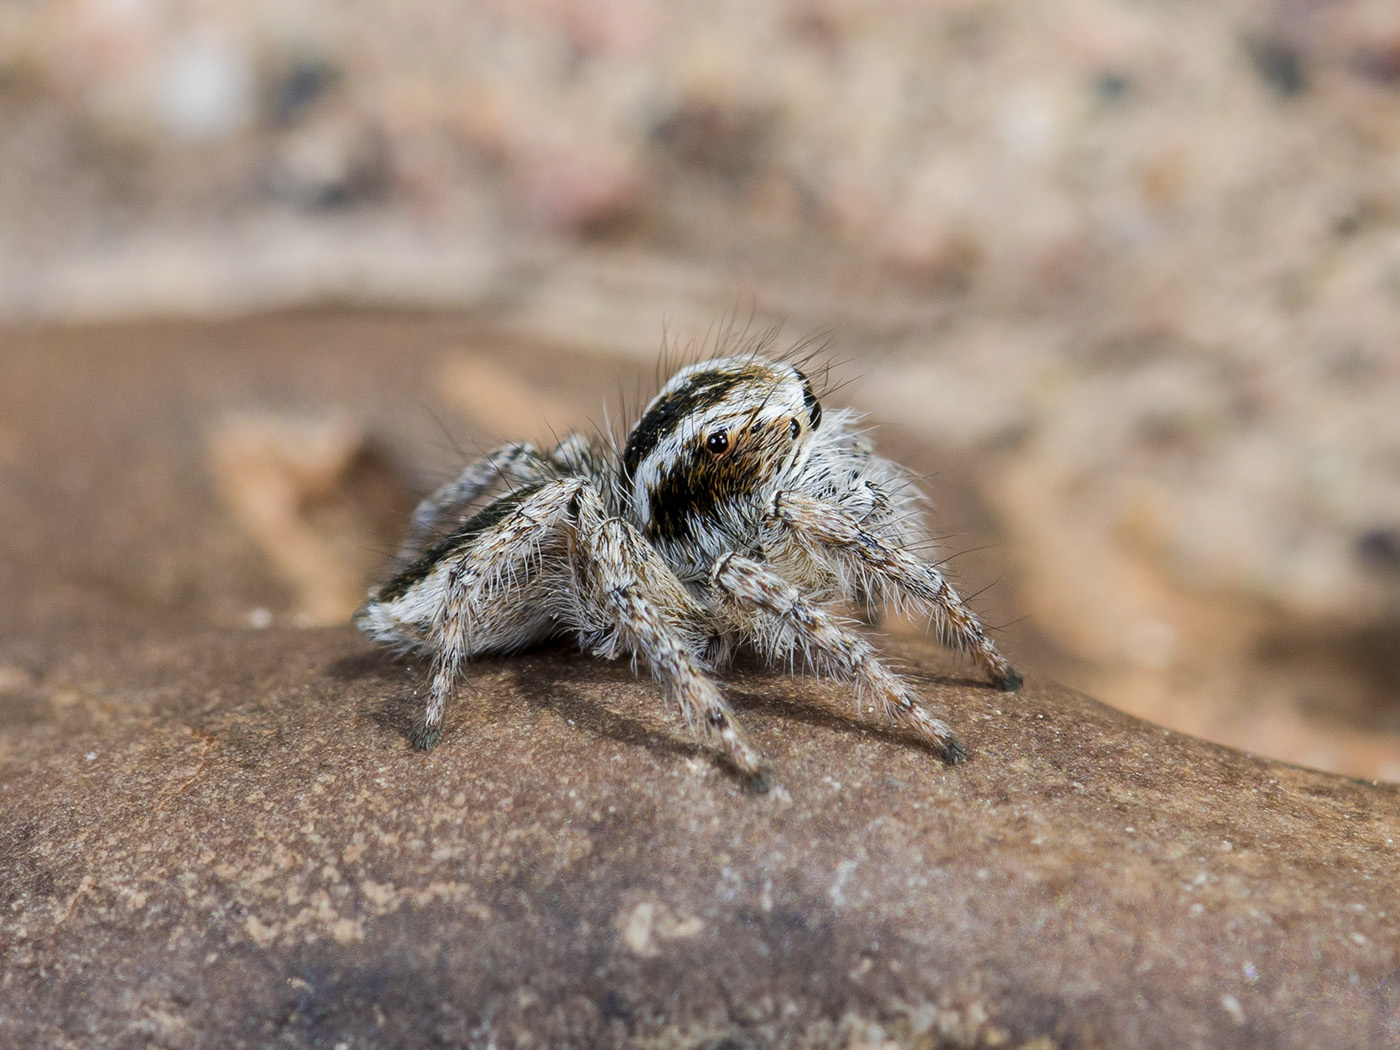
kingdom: Animalia
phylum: Arthropoda
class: Arachnida
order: Araneae
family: Salticidae
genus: Mogrus
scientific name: Mogrus antoninus
